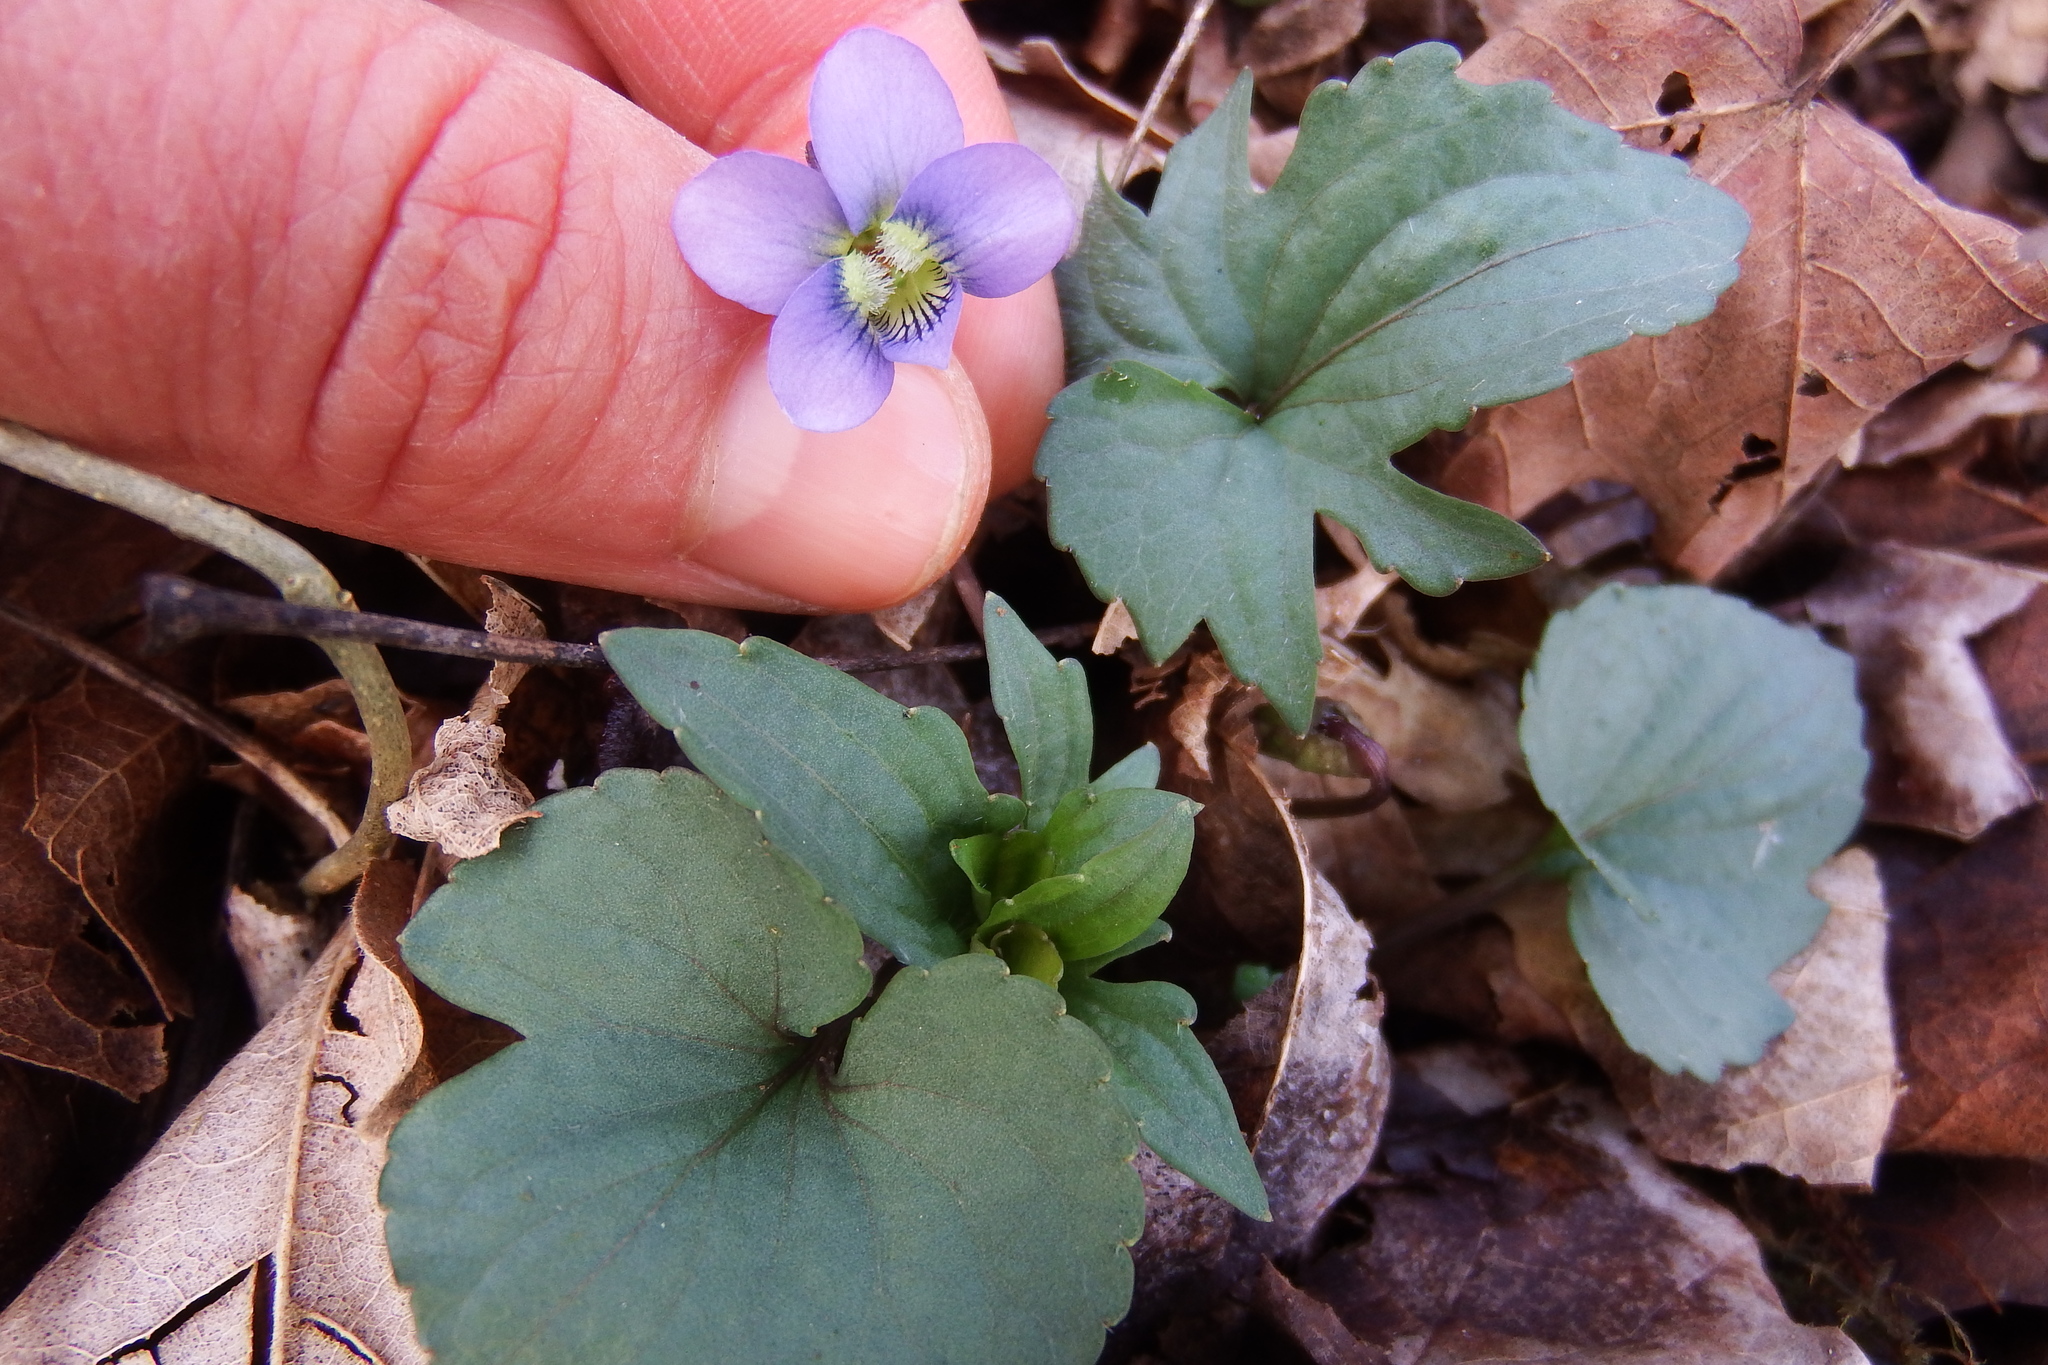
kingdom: Plantae
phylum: Tracheophyta
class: Magnoliopsida
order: Malpighiales
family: Violaceae
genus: Viola
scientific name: Viola palmata
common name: Early blue violet
